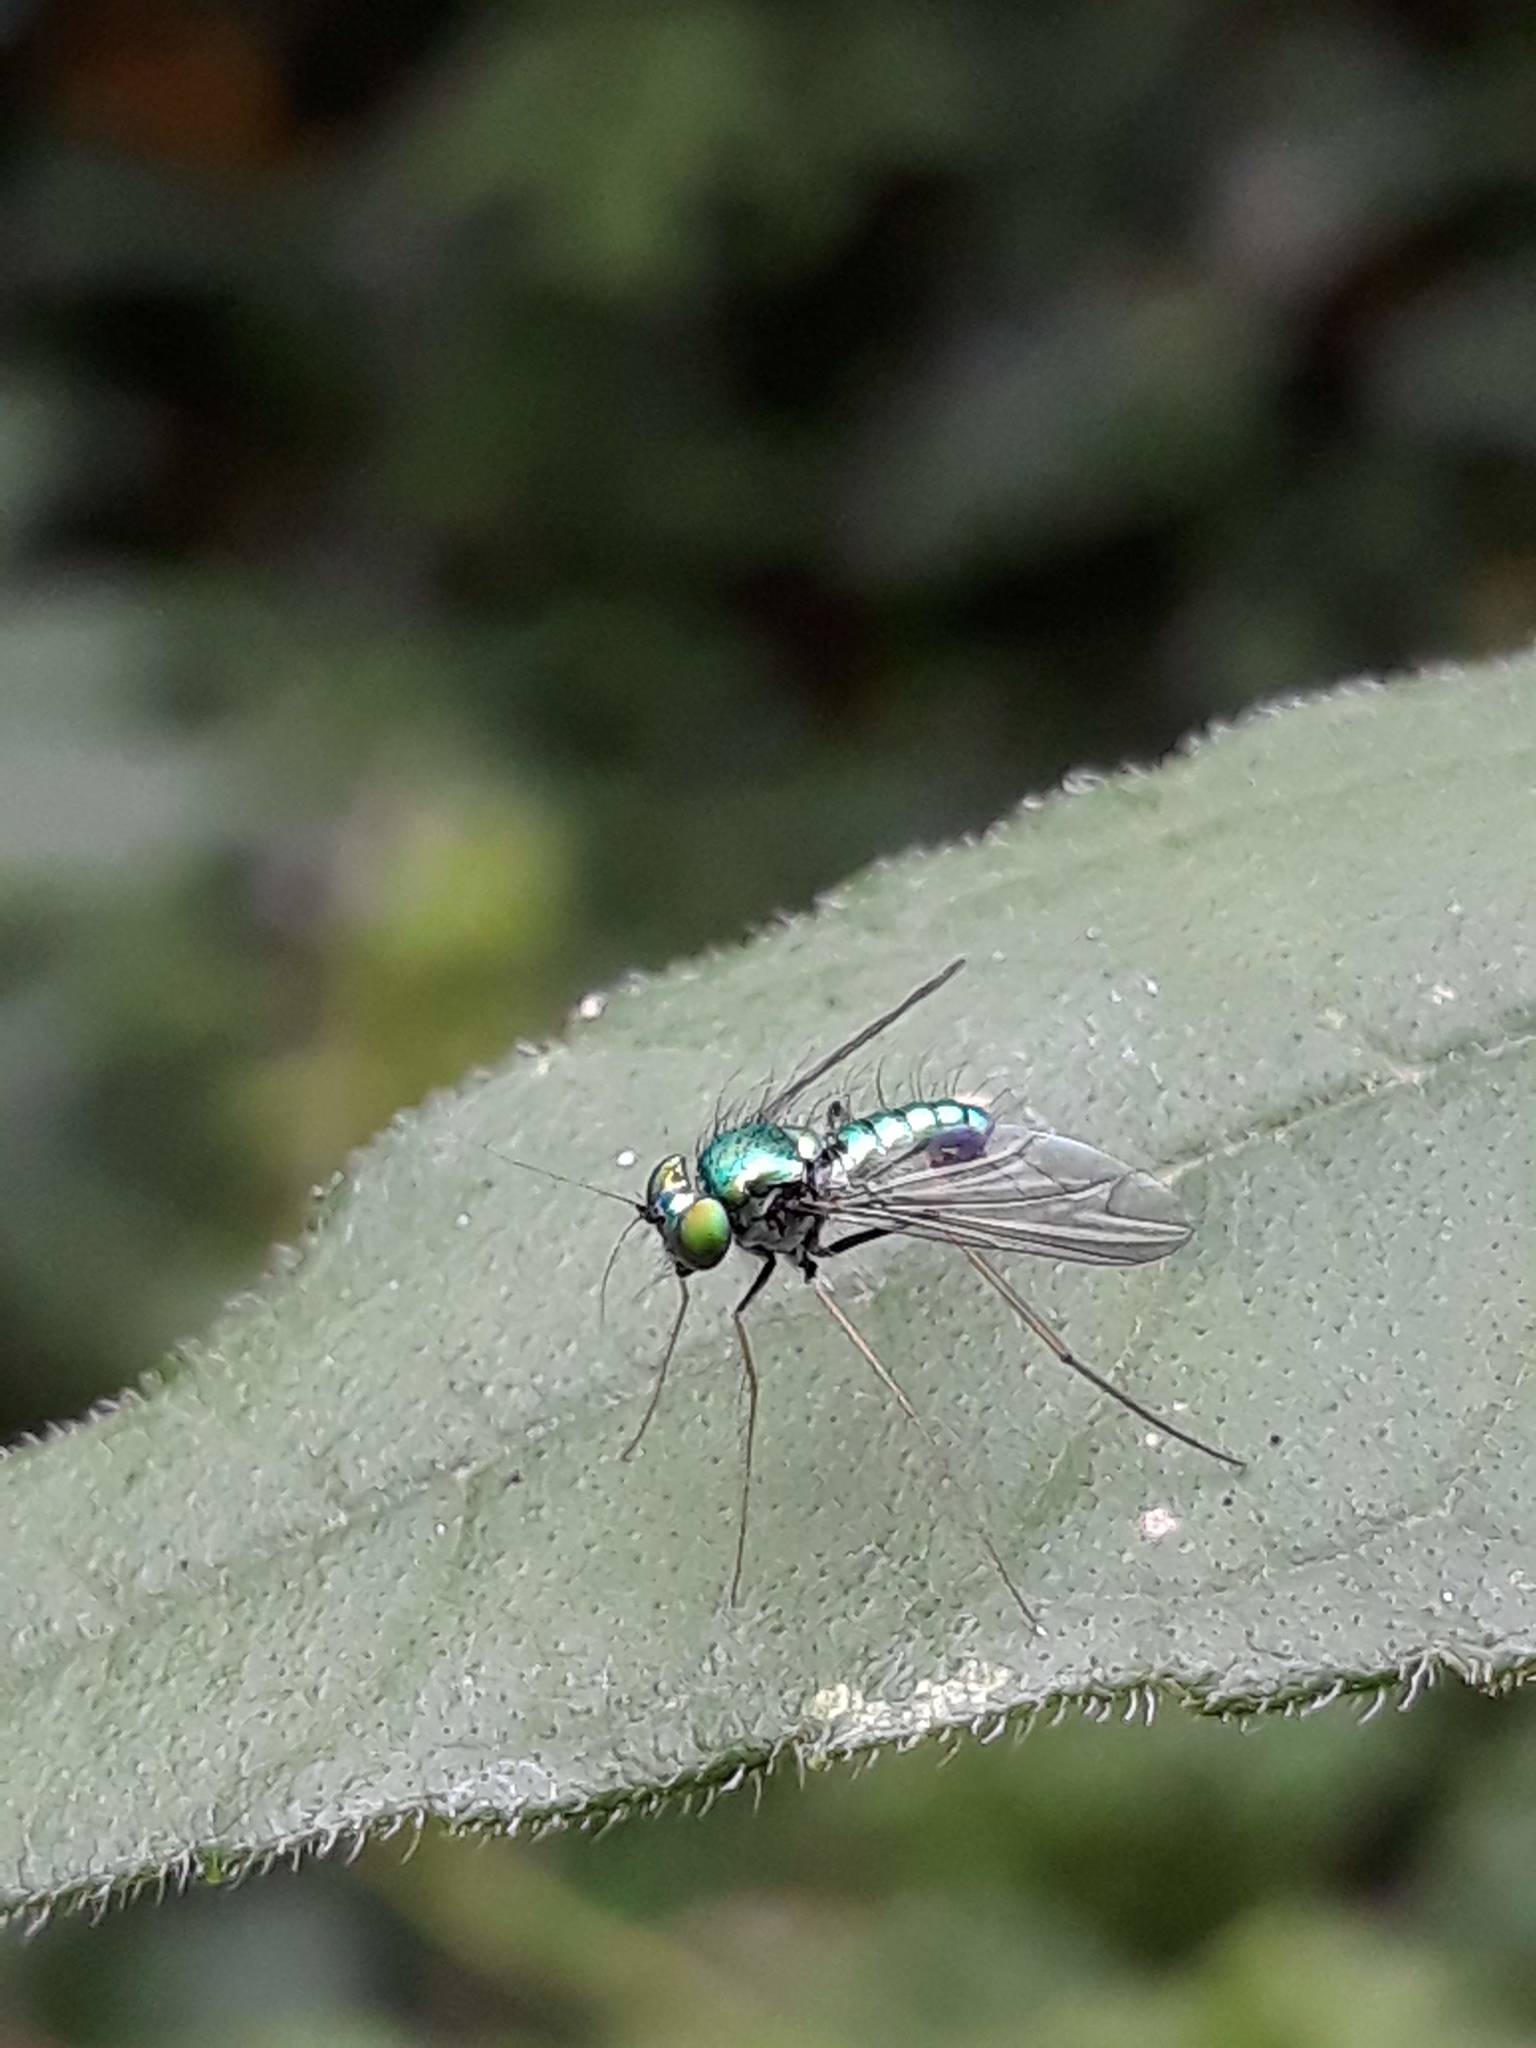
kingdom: Animalia
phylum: Arthropoda
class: Insecta
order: Diptera
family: Dolichopodidae
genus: Condylostylus
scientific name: Condylostylus comatus
